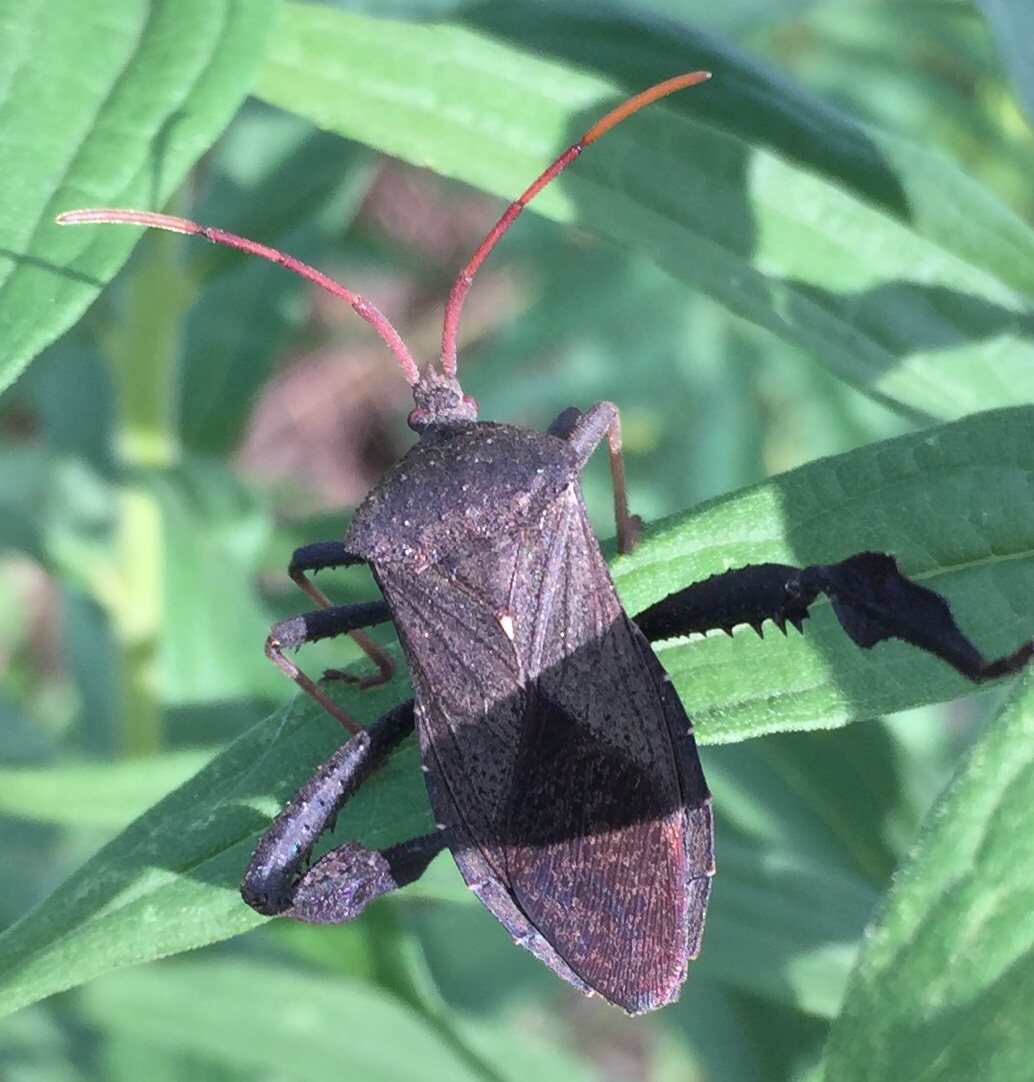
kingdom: Animalia
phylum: Arthropoda
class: Insecta
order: Hemiptera
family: Coreidae
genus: Acanthocephala
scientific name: Acanthocephala femorata
